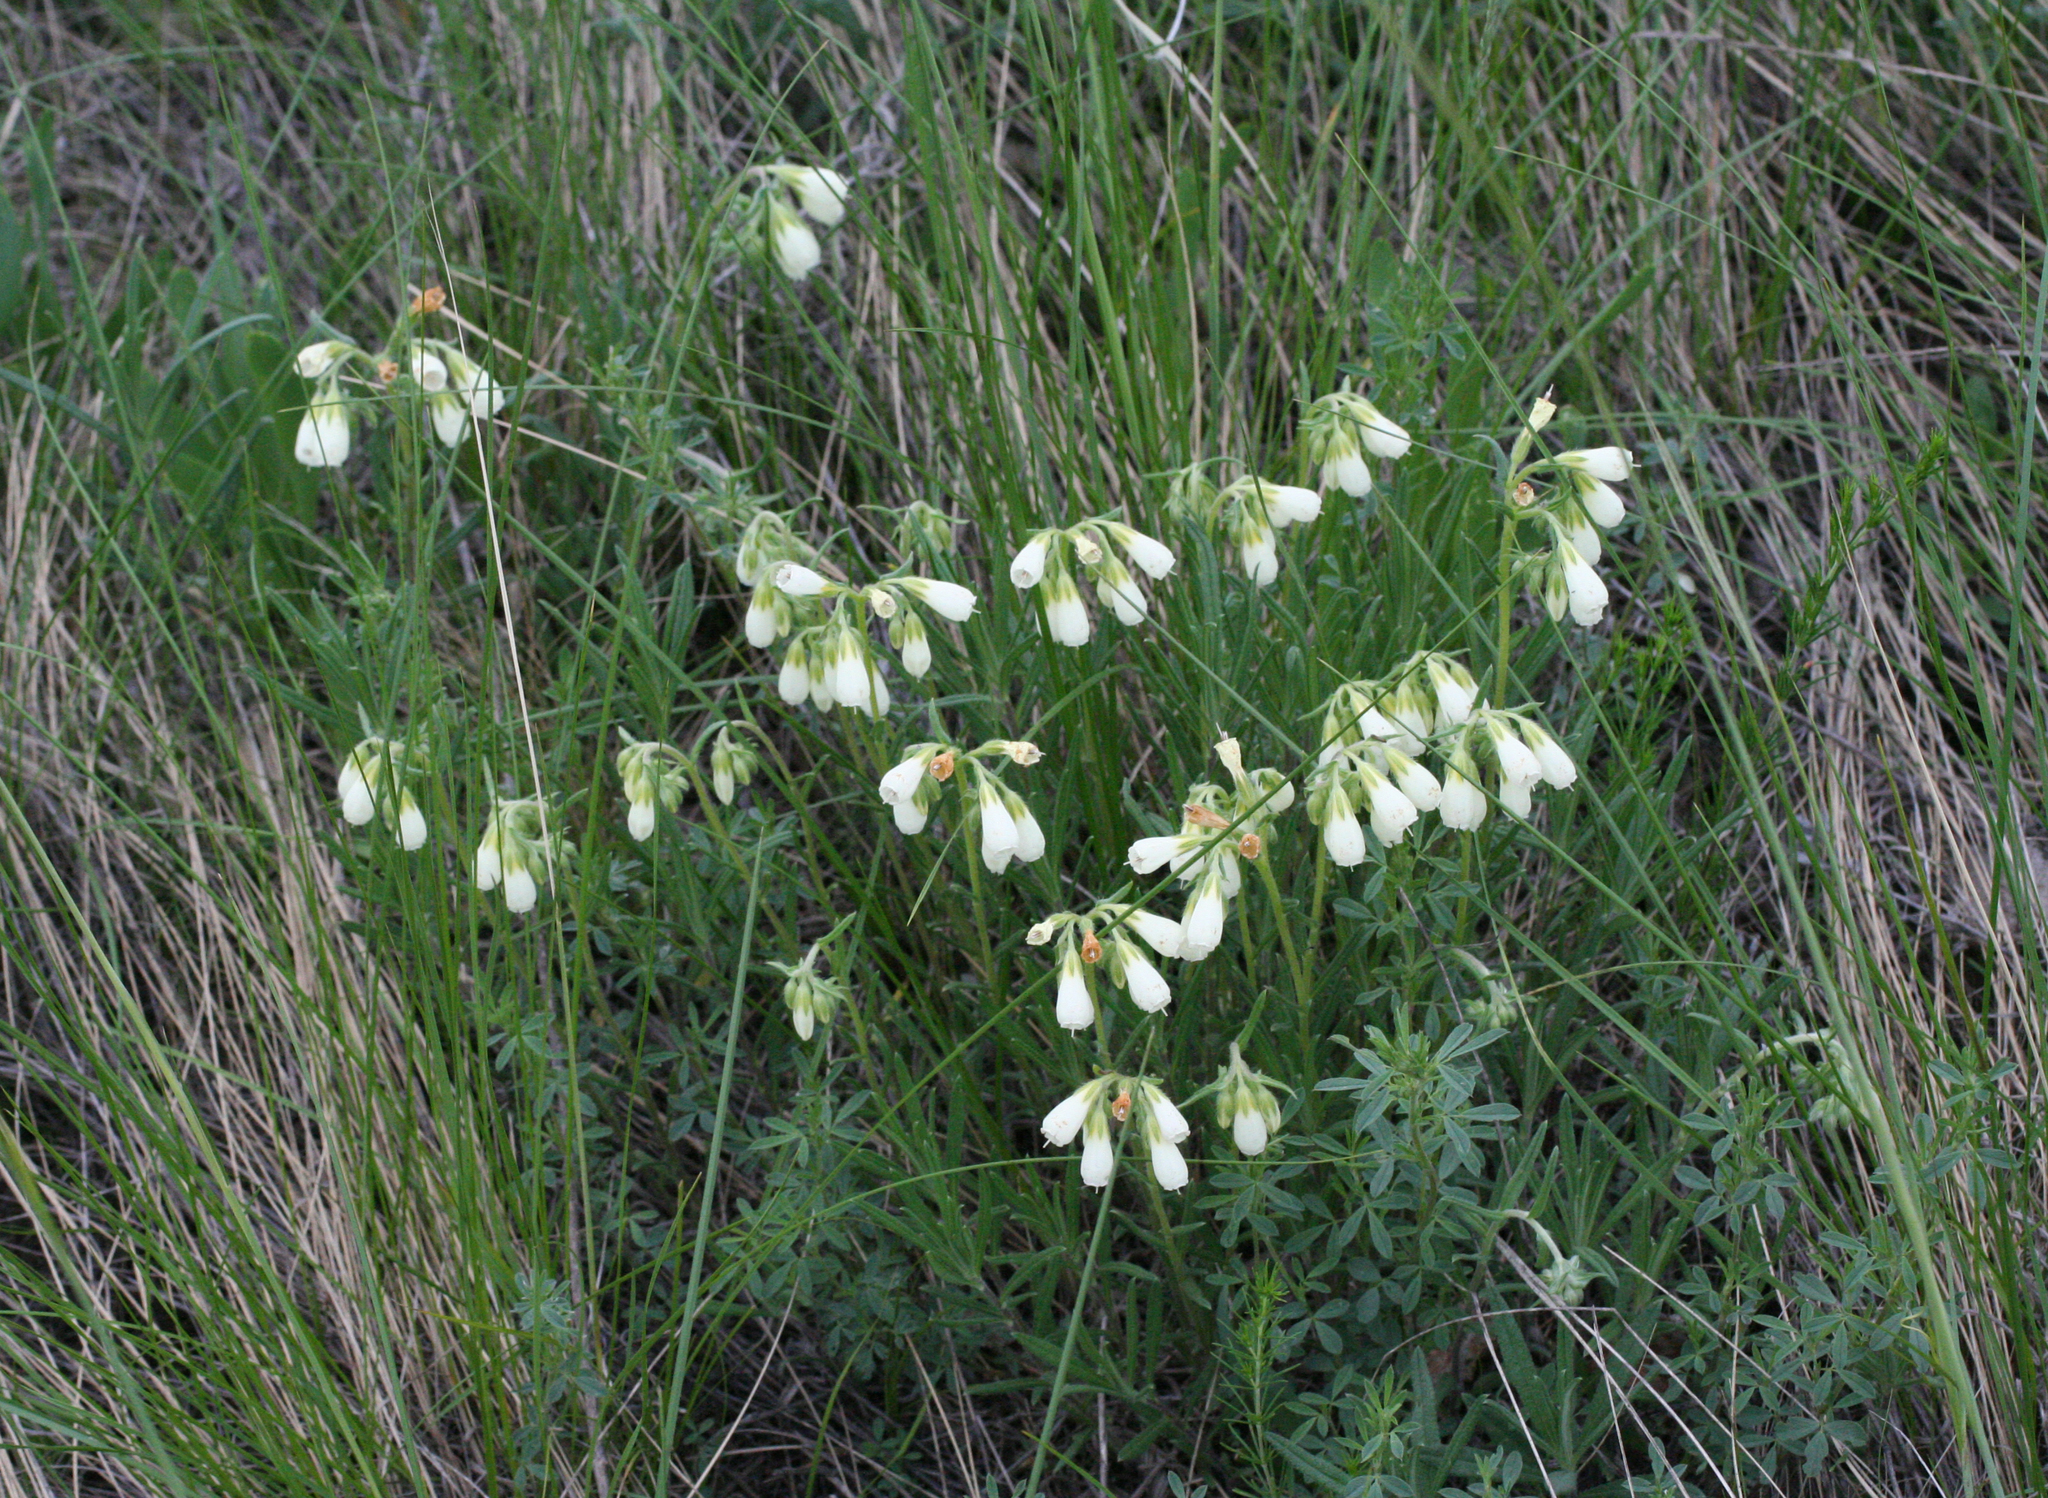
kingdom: Plantae
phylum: Tracheophyta
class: Magnoliopsida
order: Boraginales
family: Boraginaceae
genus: Onosma
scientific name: Onosma simplicissima
